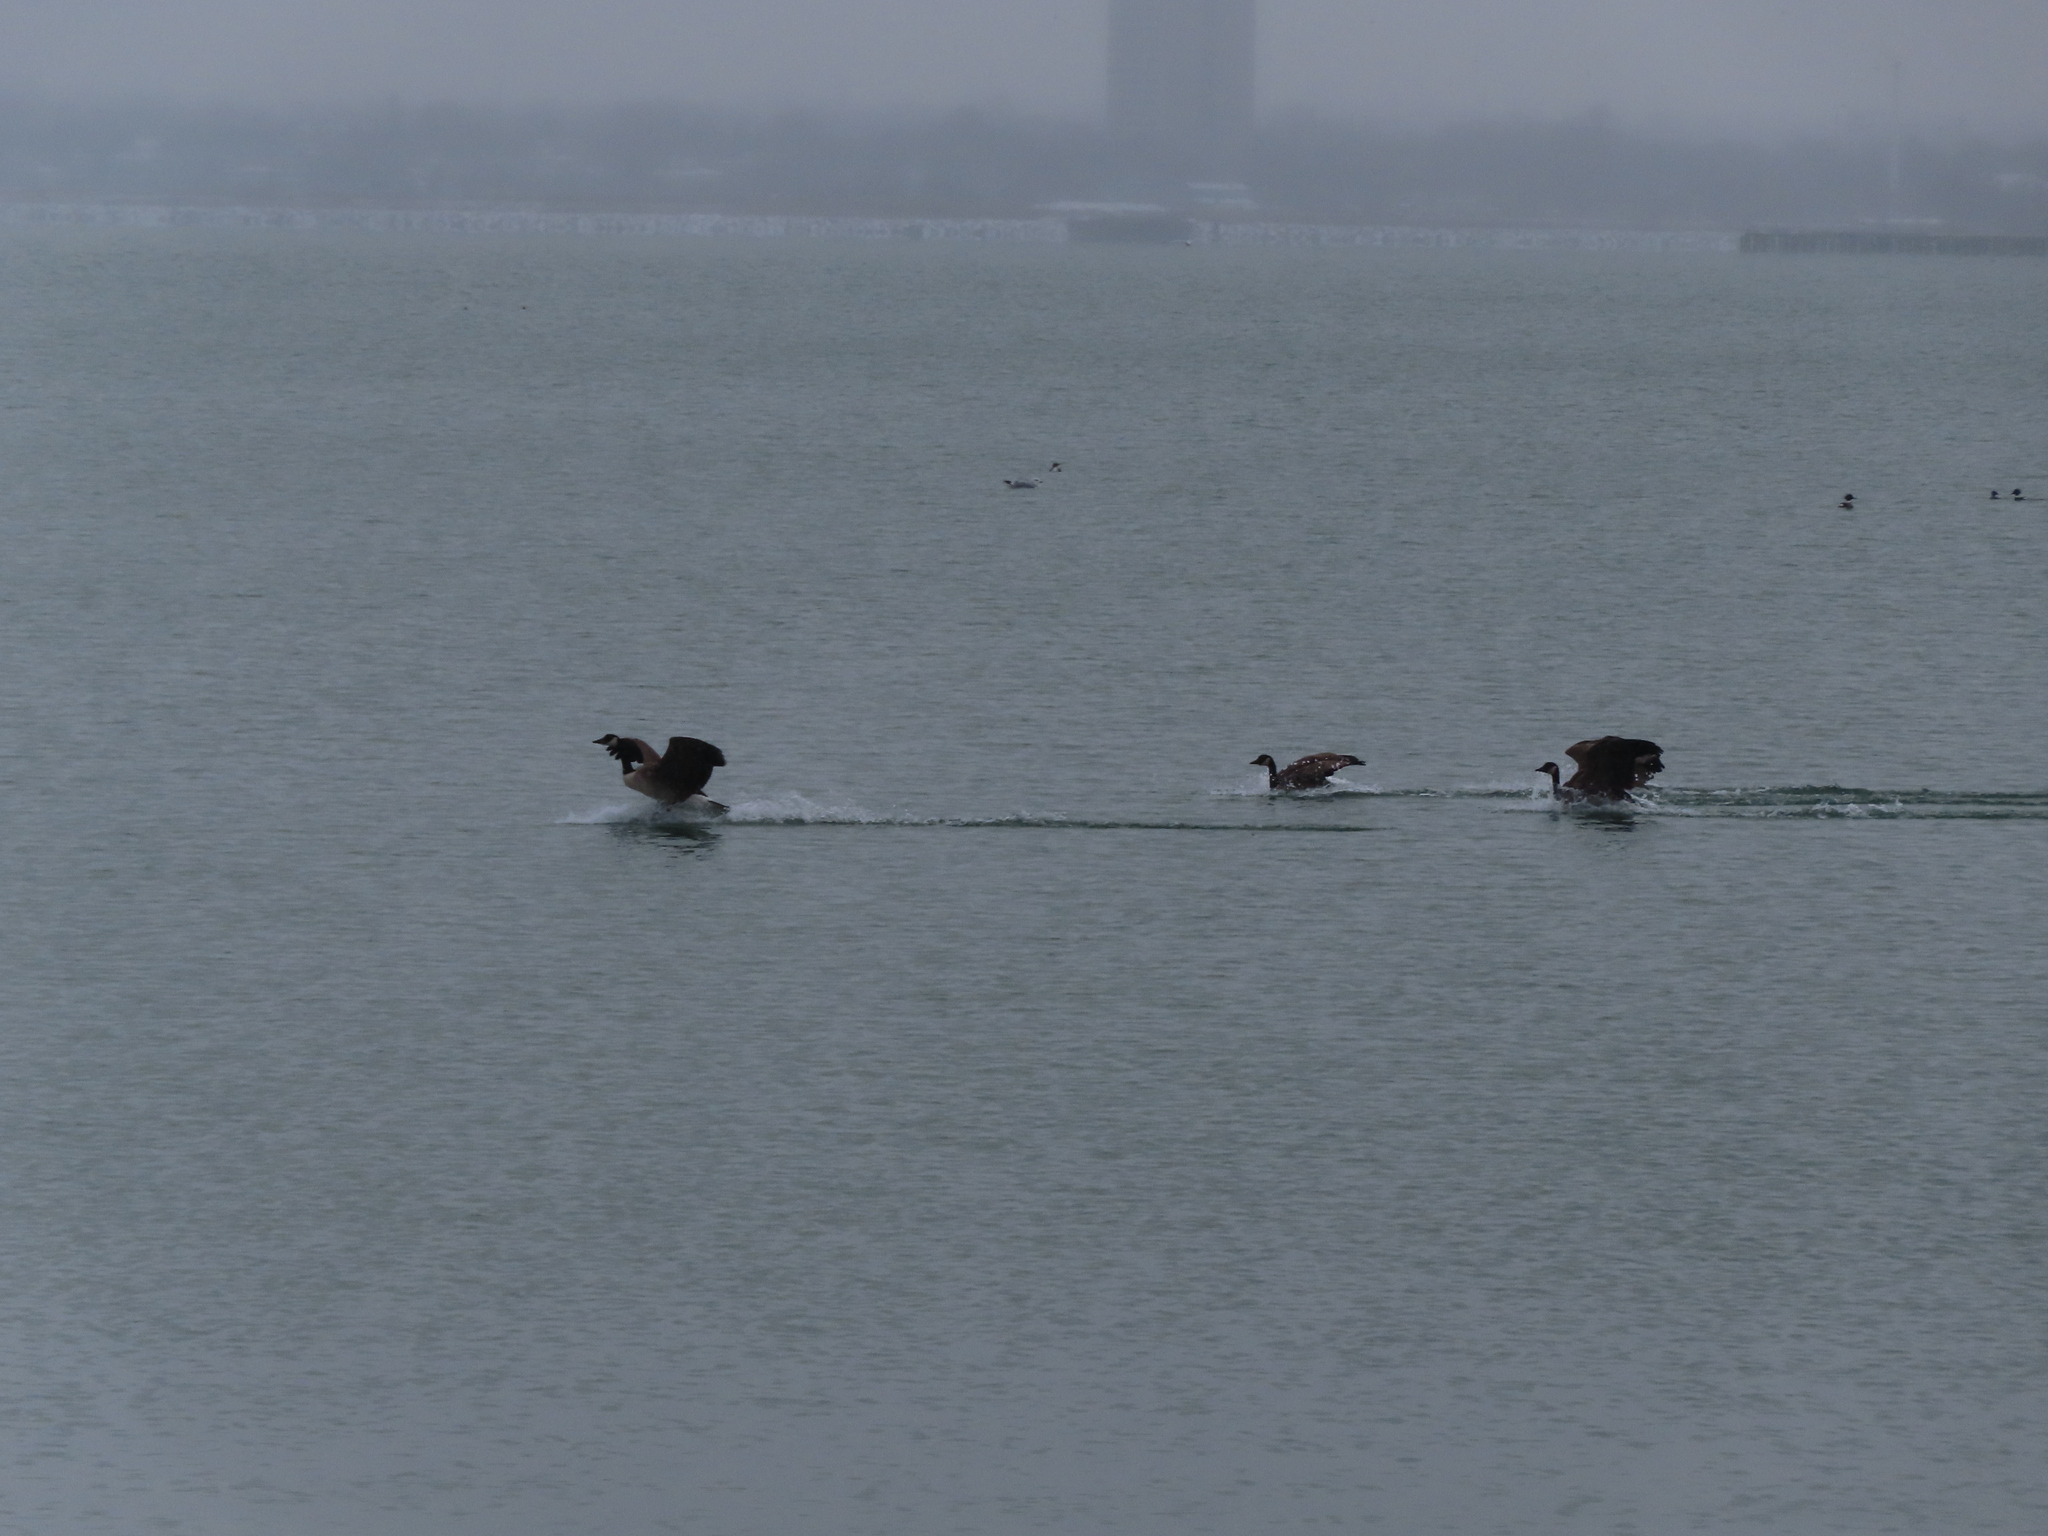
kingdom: Animalia
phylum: Chordata
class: Aves
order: Anseriformes
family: Anatidae
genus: Branta
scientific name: Branta canadensis
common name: Canada goose
